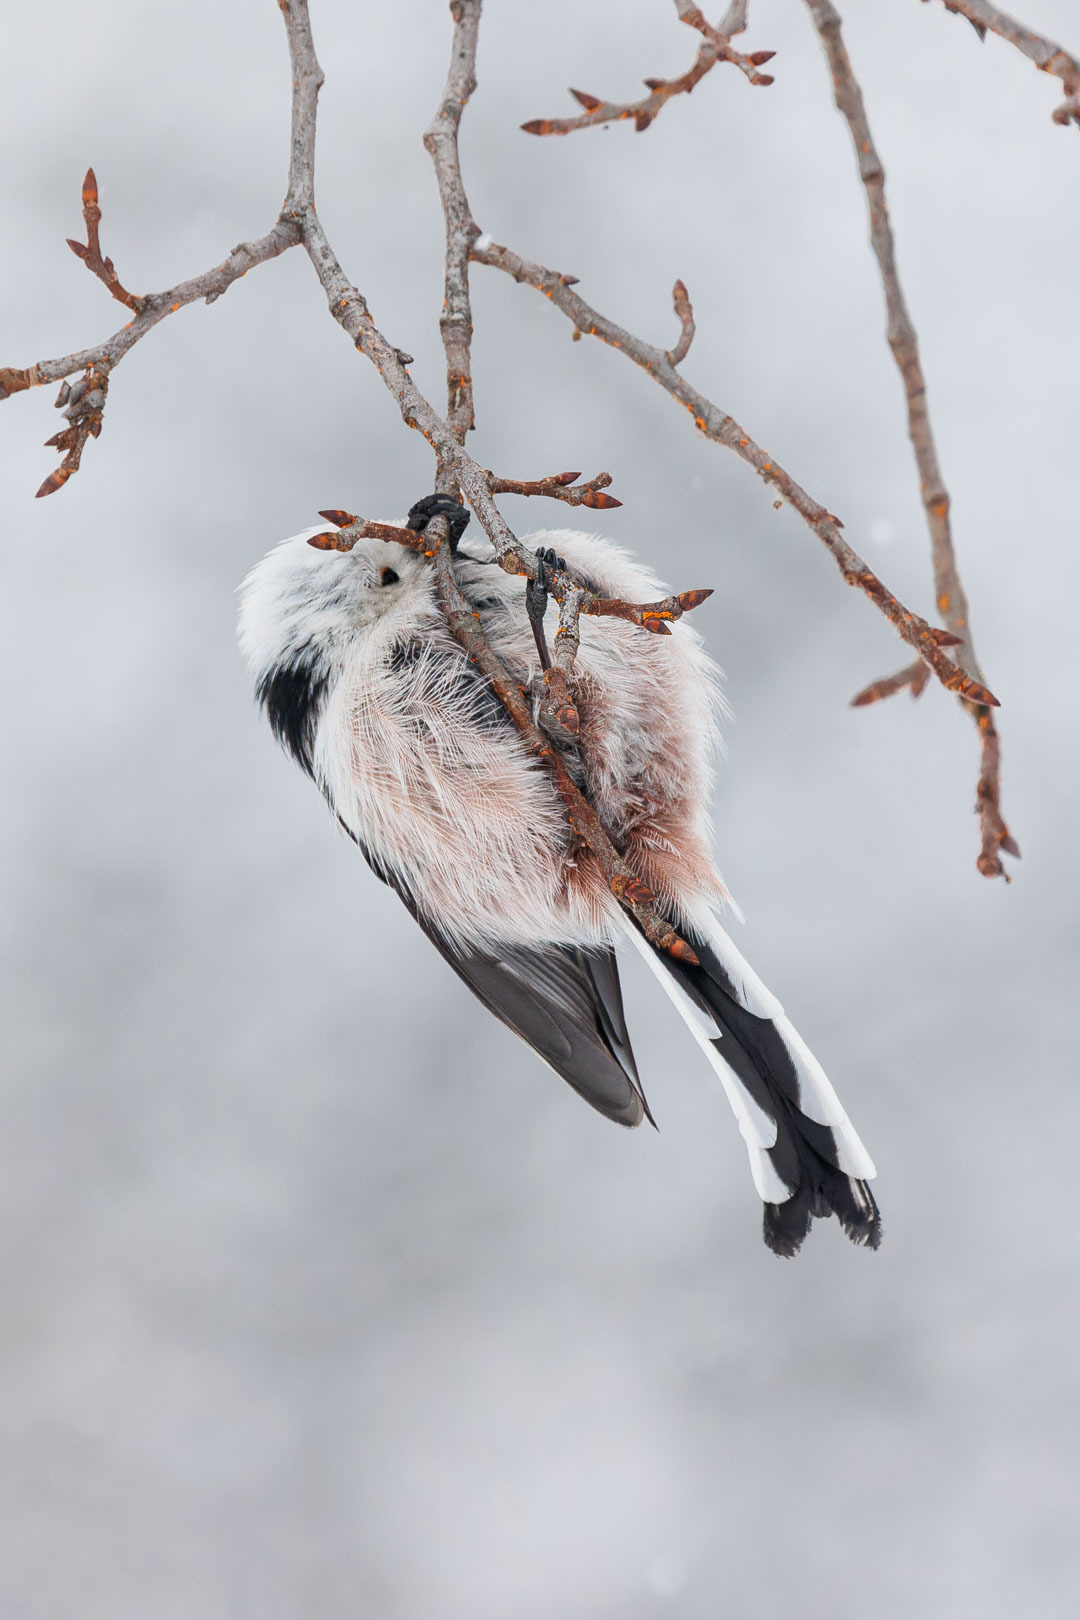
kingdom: Animalia
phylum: Chordata
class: Aves
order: Passeriformes
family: Aegithalidae
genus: Aegithalos
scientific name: Aegithalos caudatus
